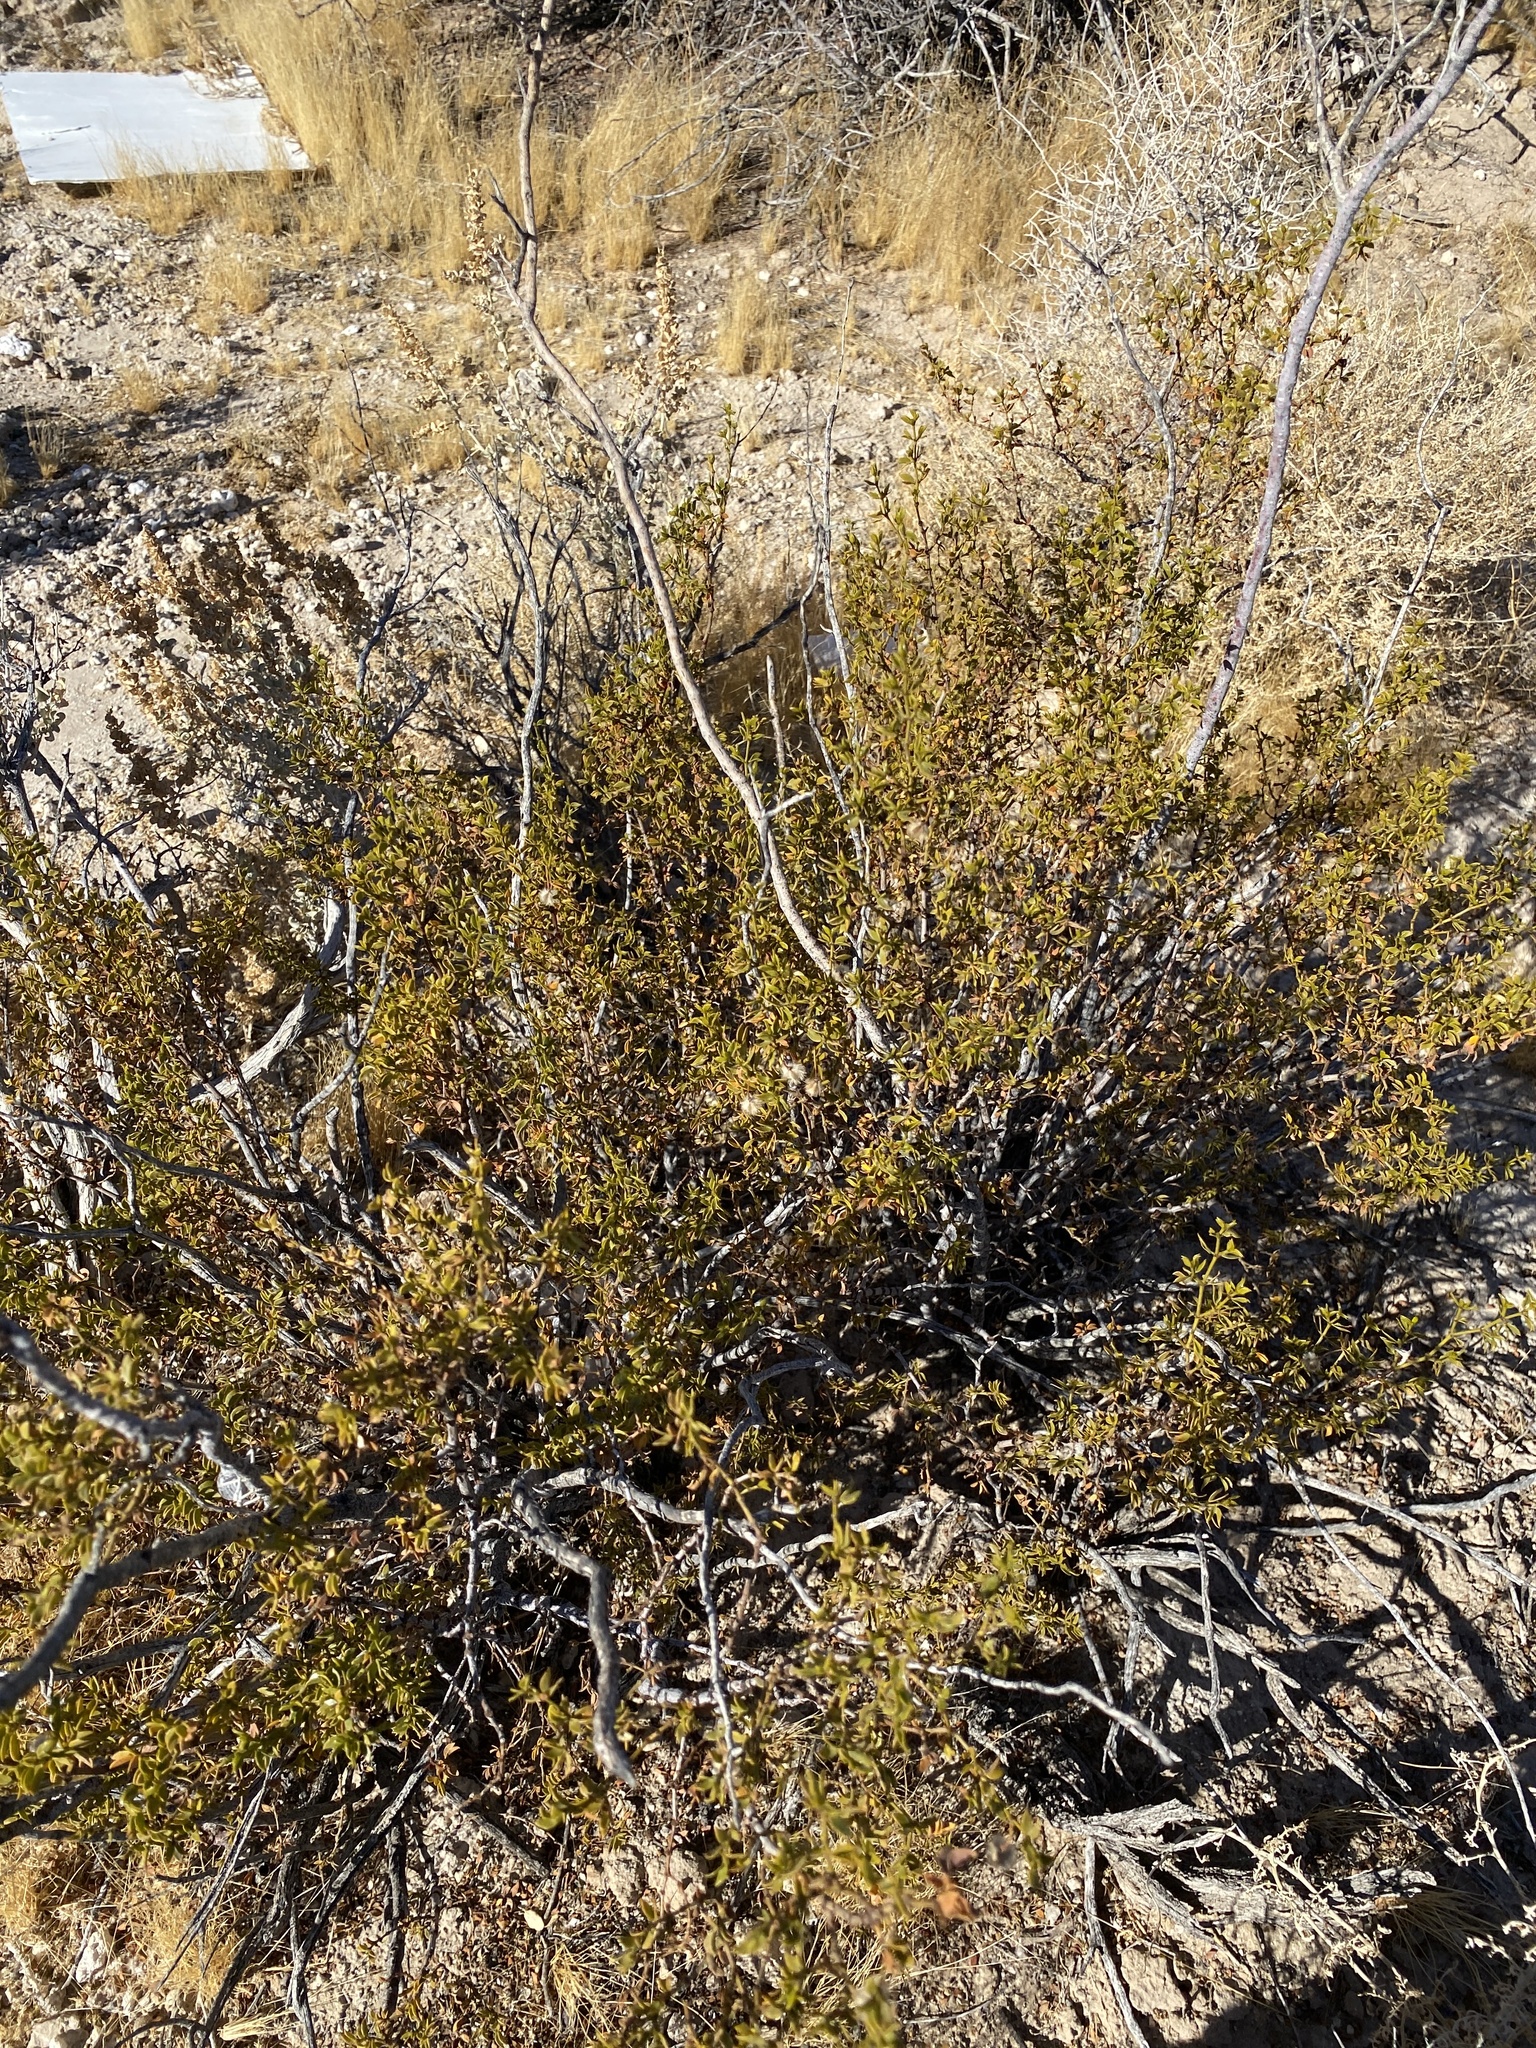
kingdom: Plantae
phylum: Tracheophyta
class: Magnoliopsida
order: Zygophyllales
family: Zygophyllaceae
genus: Larrea
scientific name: Larrea tridentata
